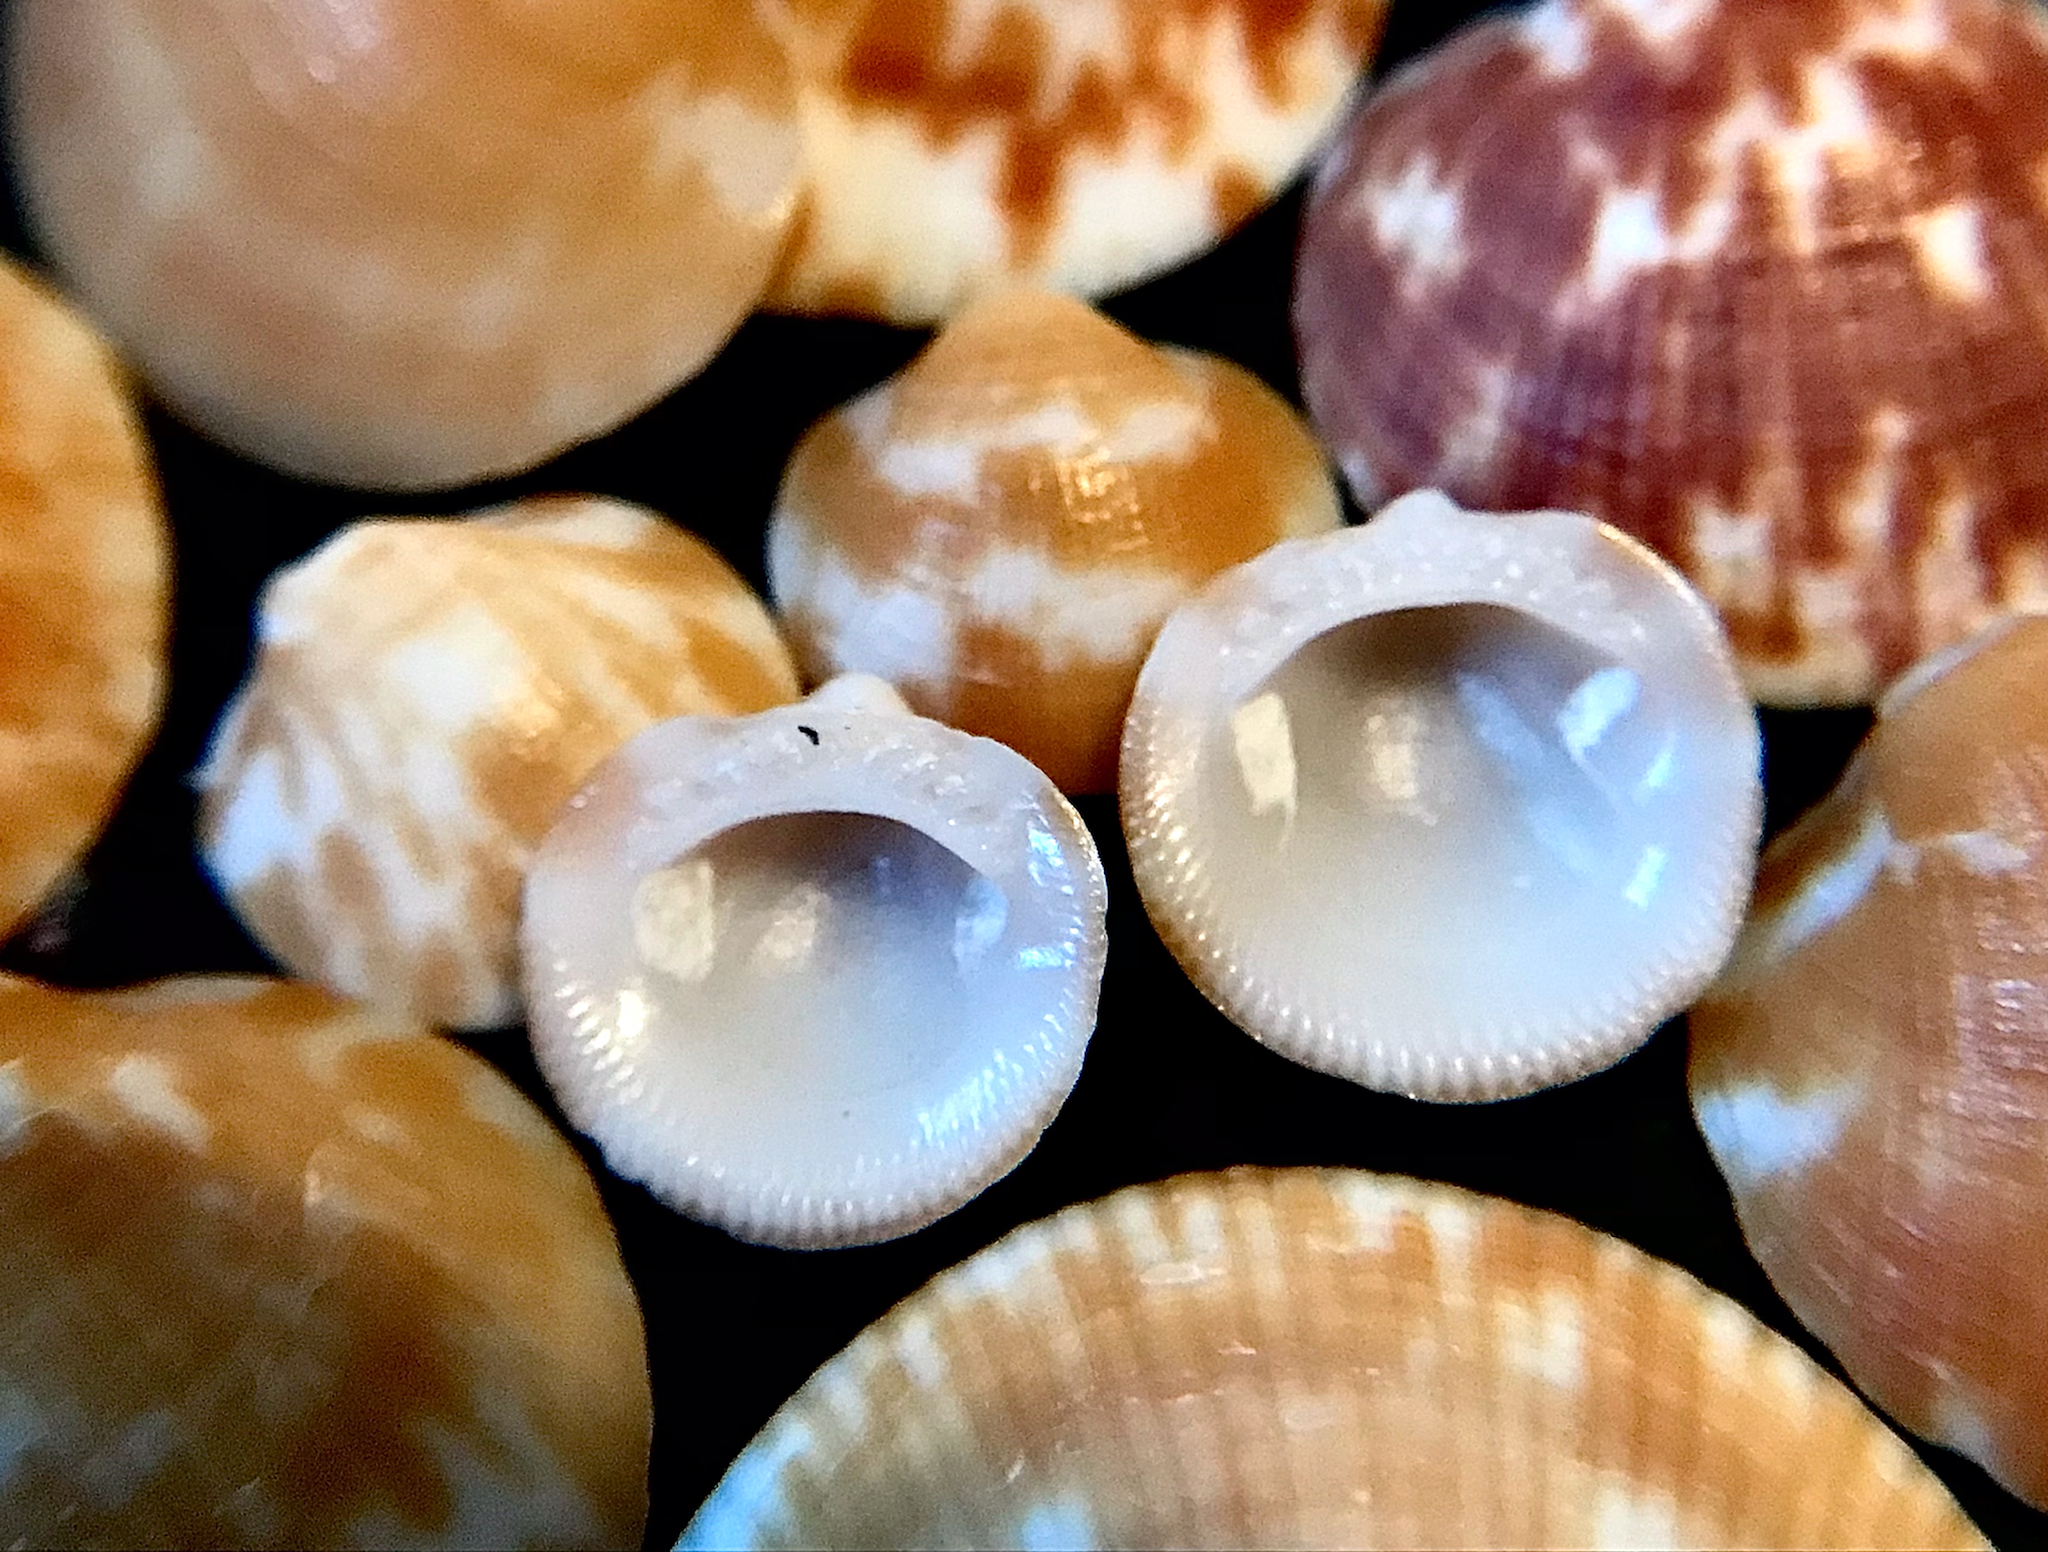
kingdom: Animalia
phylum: Mollusca
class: Bivalvia
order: Arcida
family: Glycymerididae
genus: Glycymeris
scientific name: Glycymeris americana
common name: American bittersweet
